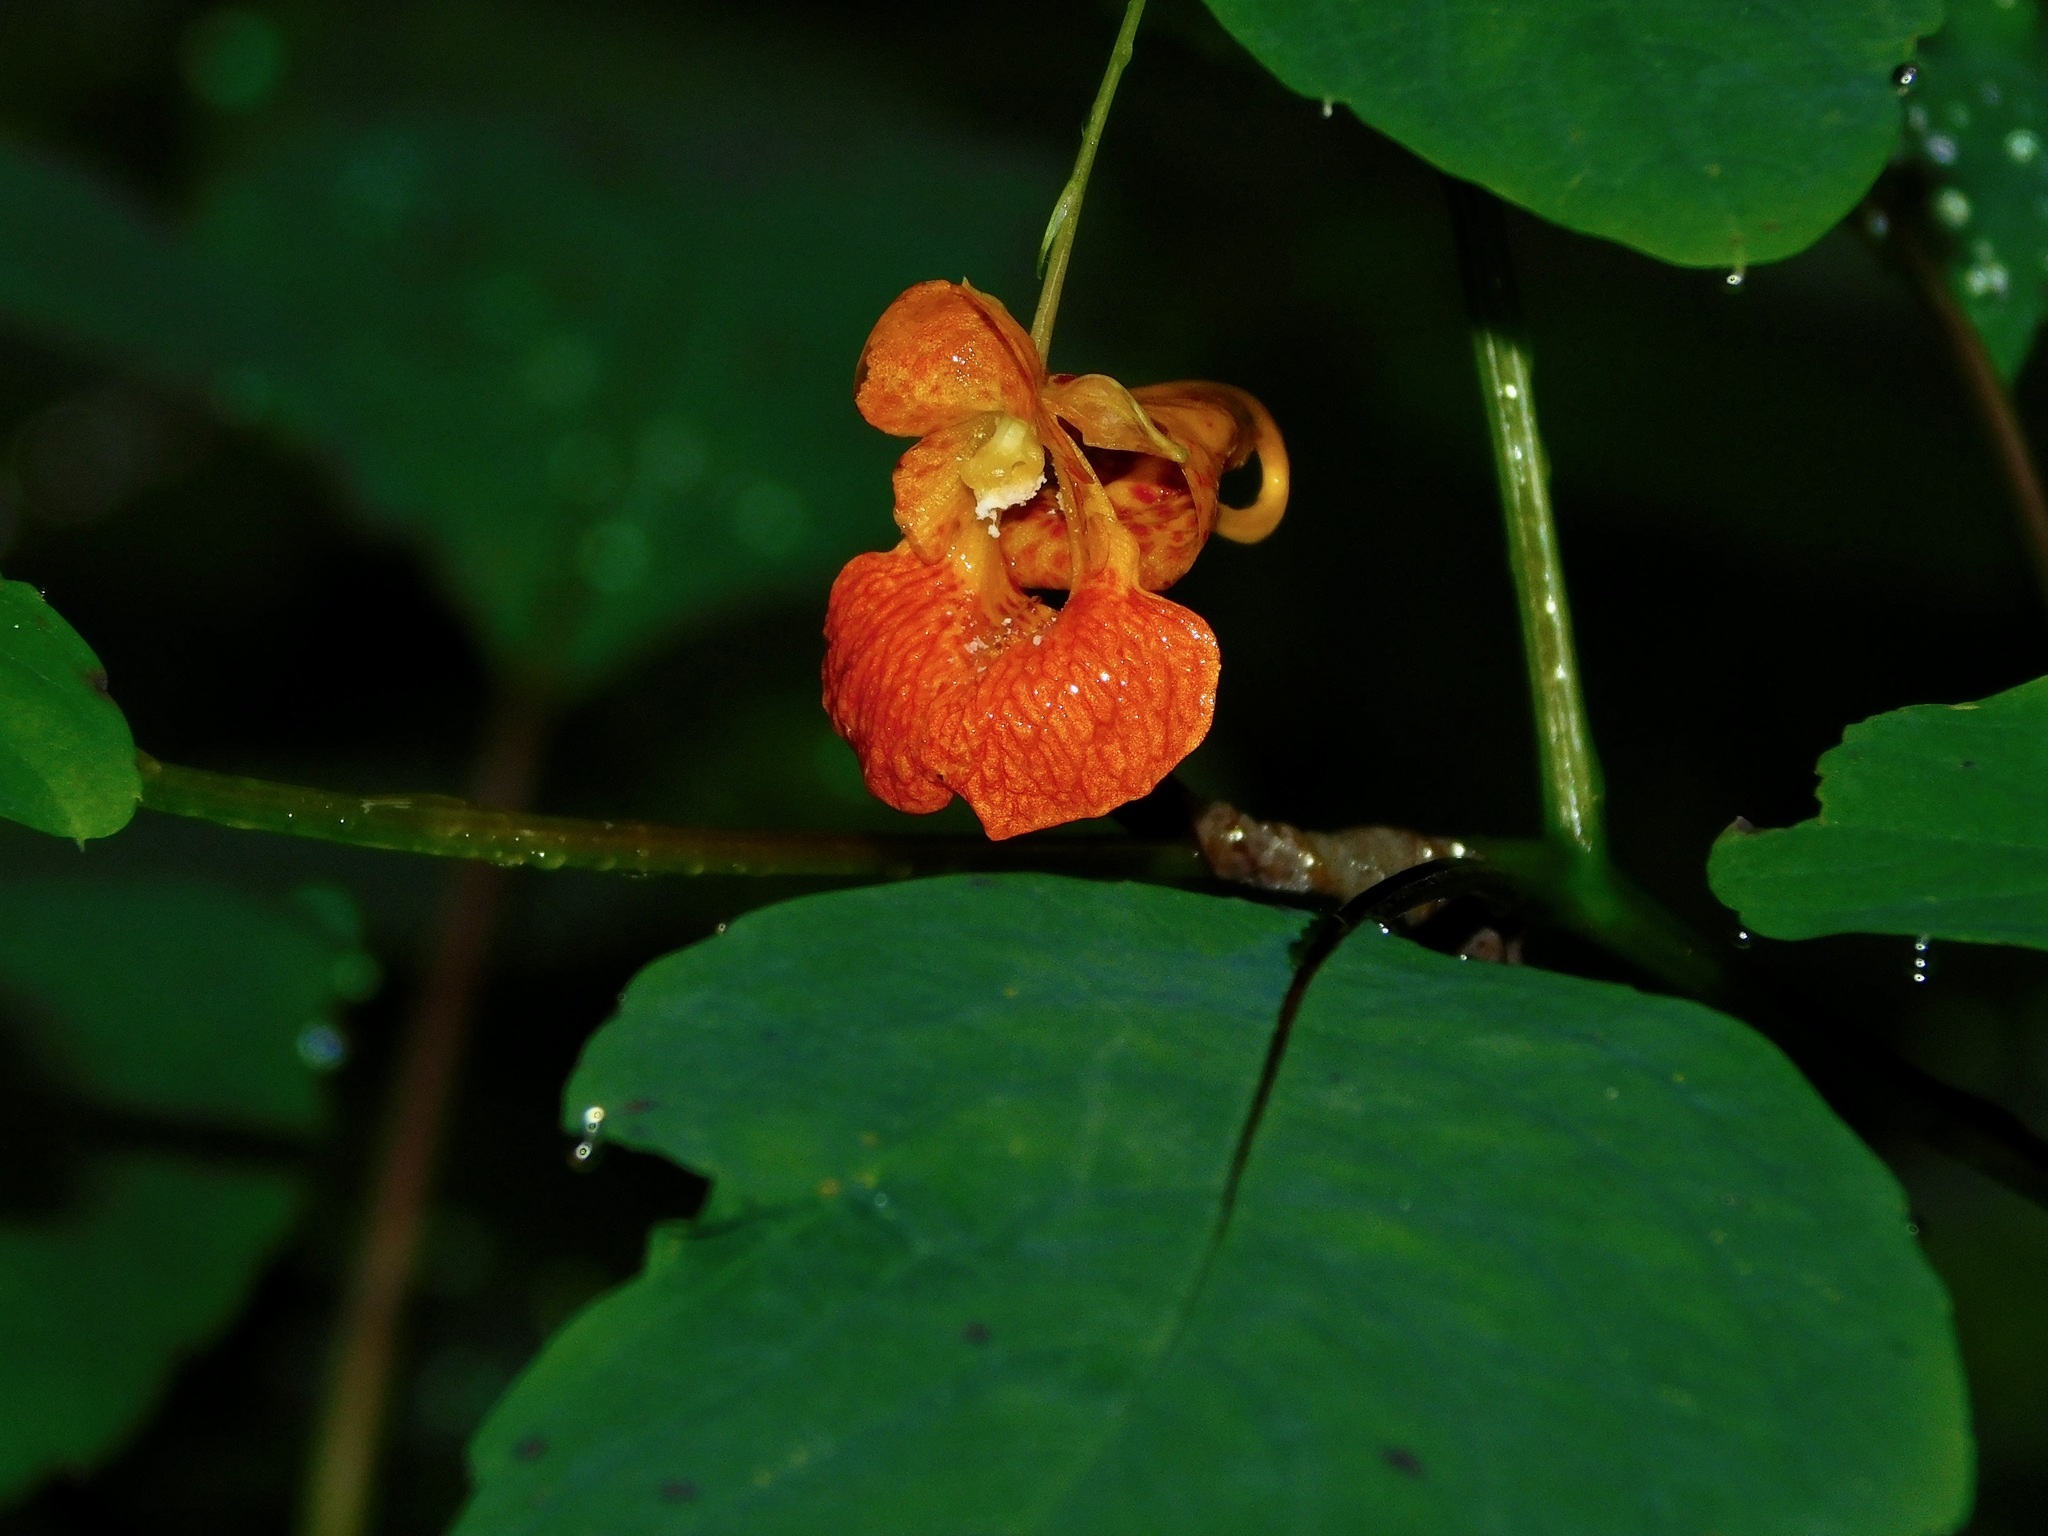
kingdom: Plantae
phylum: Tracheophyta
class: Magnoliopsida
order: Ericales
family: Balsaminaceae
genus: Impatiens
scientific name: Impatiens capensis
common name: Orange balsam
